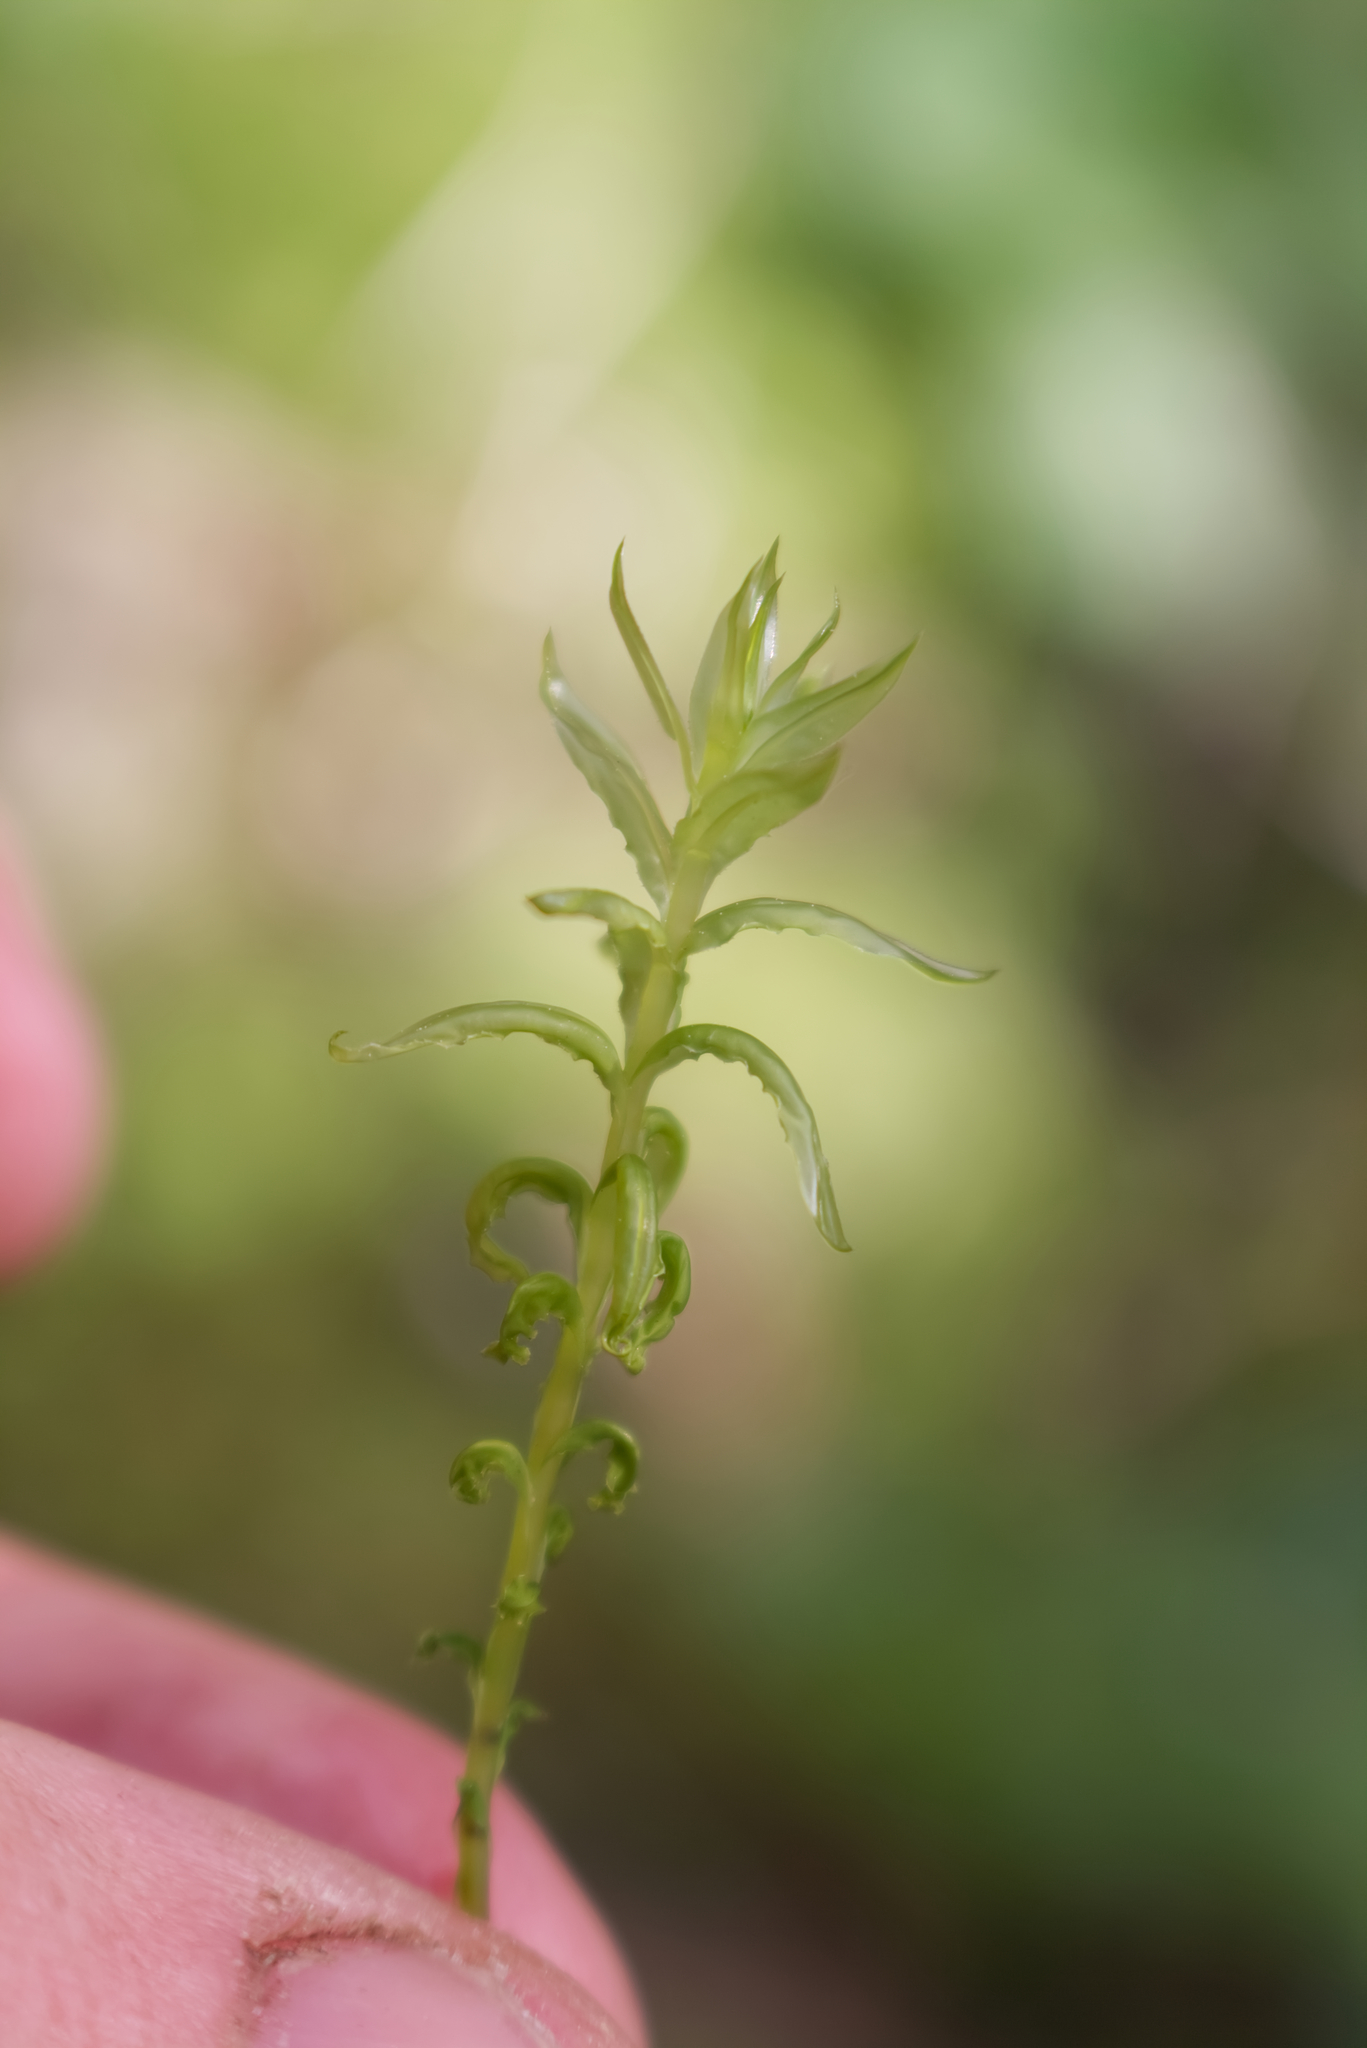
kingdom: Plantae
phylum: Bryophyta
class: Bryopsida
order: Bryales
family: Mniaceae
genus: Plagiomnium
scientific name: Plagiomnium undulatum
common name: Hart's-tongue thyme-moss
